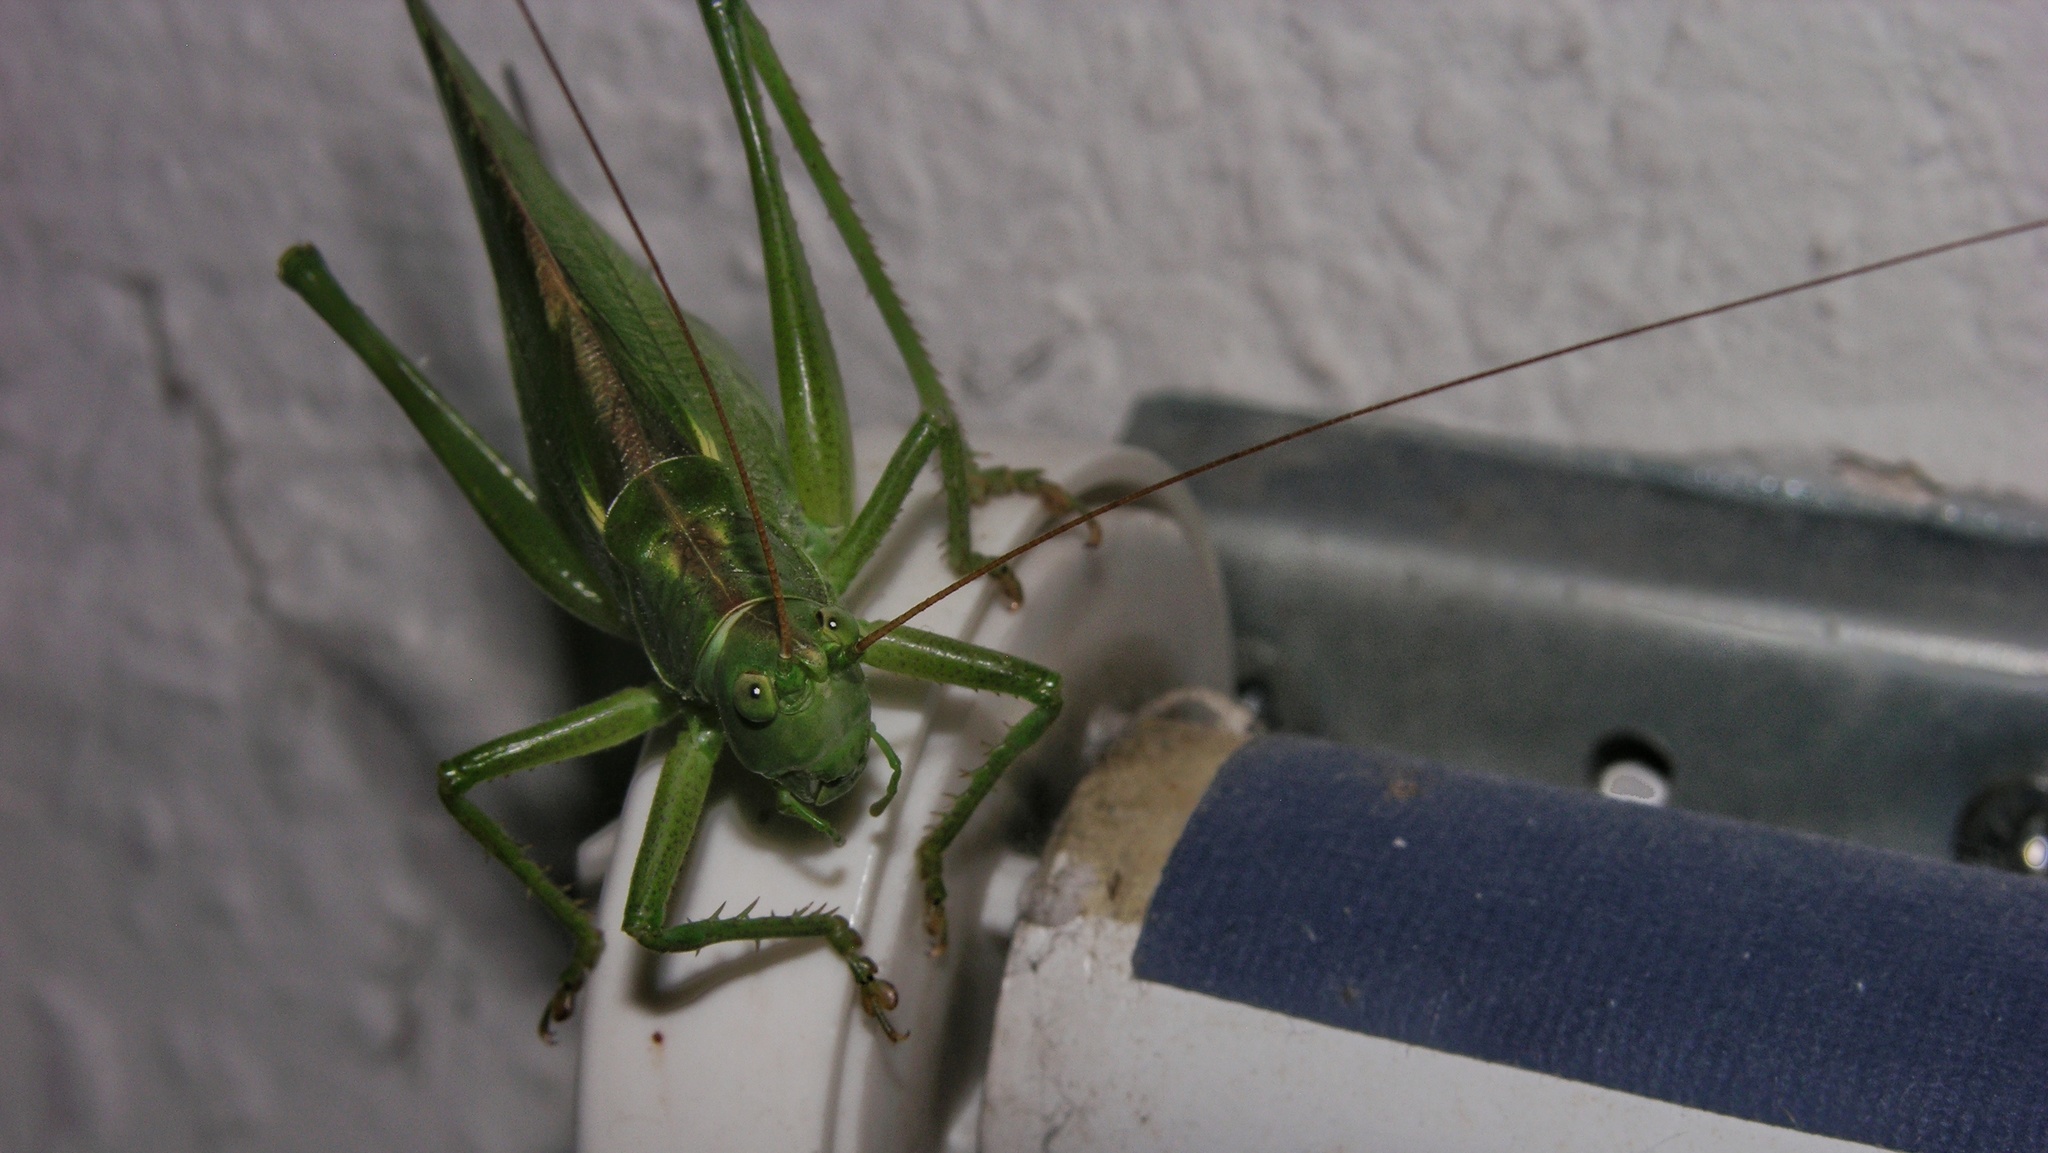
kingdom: Animalia
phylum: Arthropoda
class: Insecta
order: Orthoptera
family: Tettigoniidae
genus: Tettigonia
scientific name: Tettigonia viridissima
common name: Great green bush-cricket
